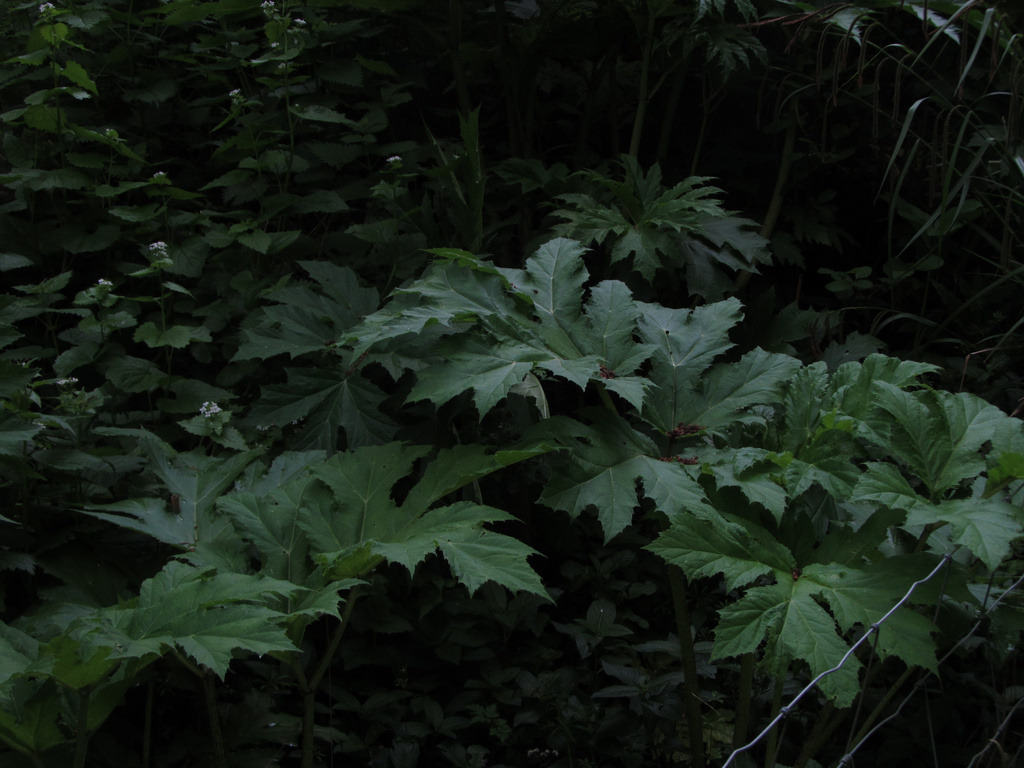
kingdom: Plantae
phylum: Tracheophyta
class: Magnoliopsida
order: Apiales
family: Apiaceae
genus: Heracleum
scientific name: Heracleum mantegazzianum
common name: Giant hogweed
